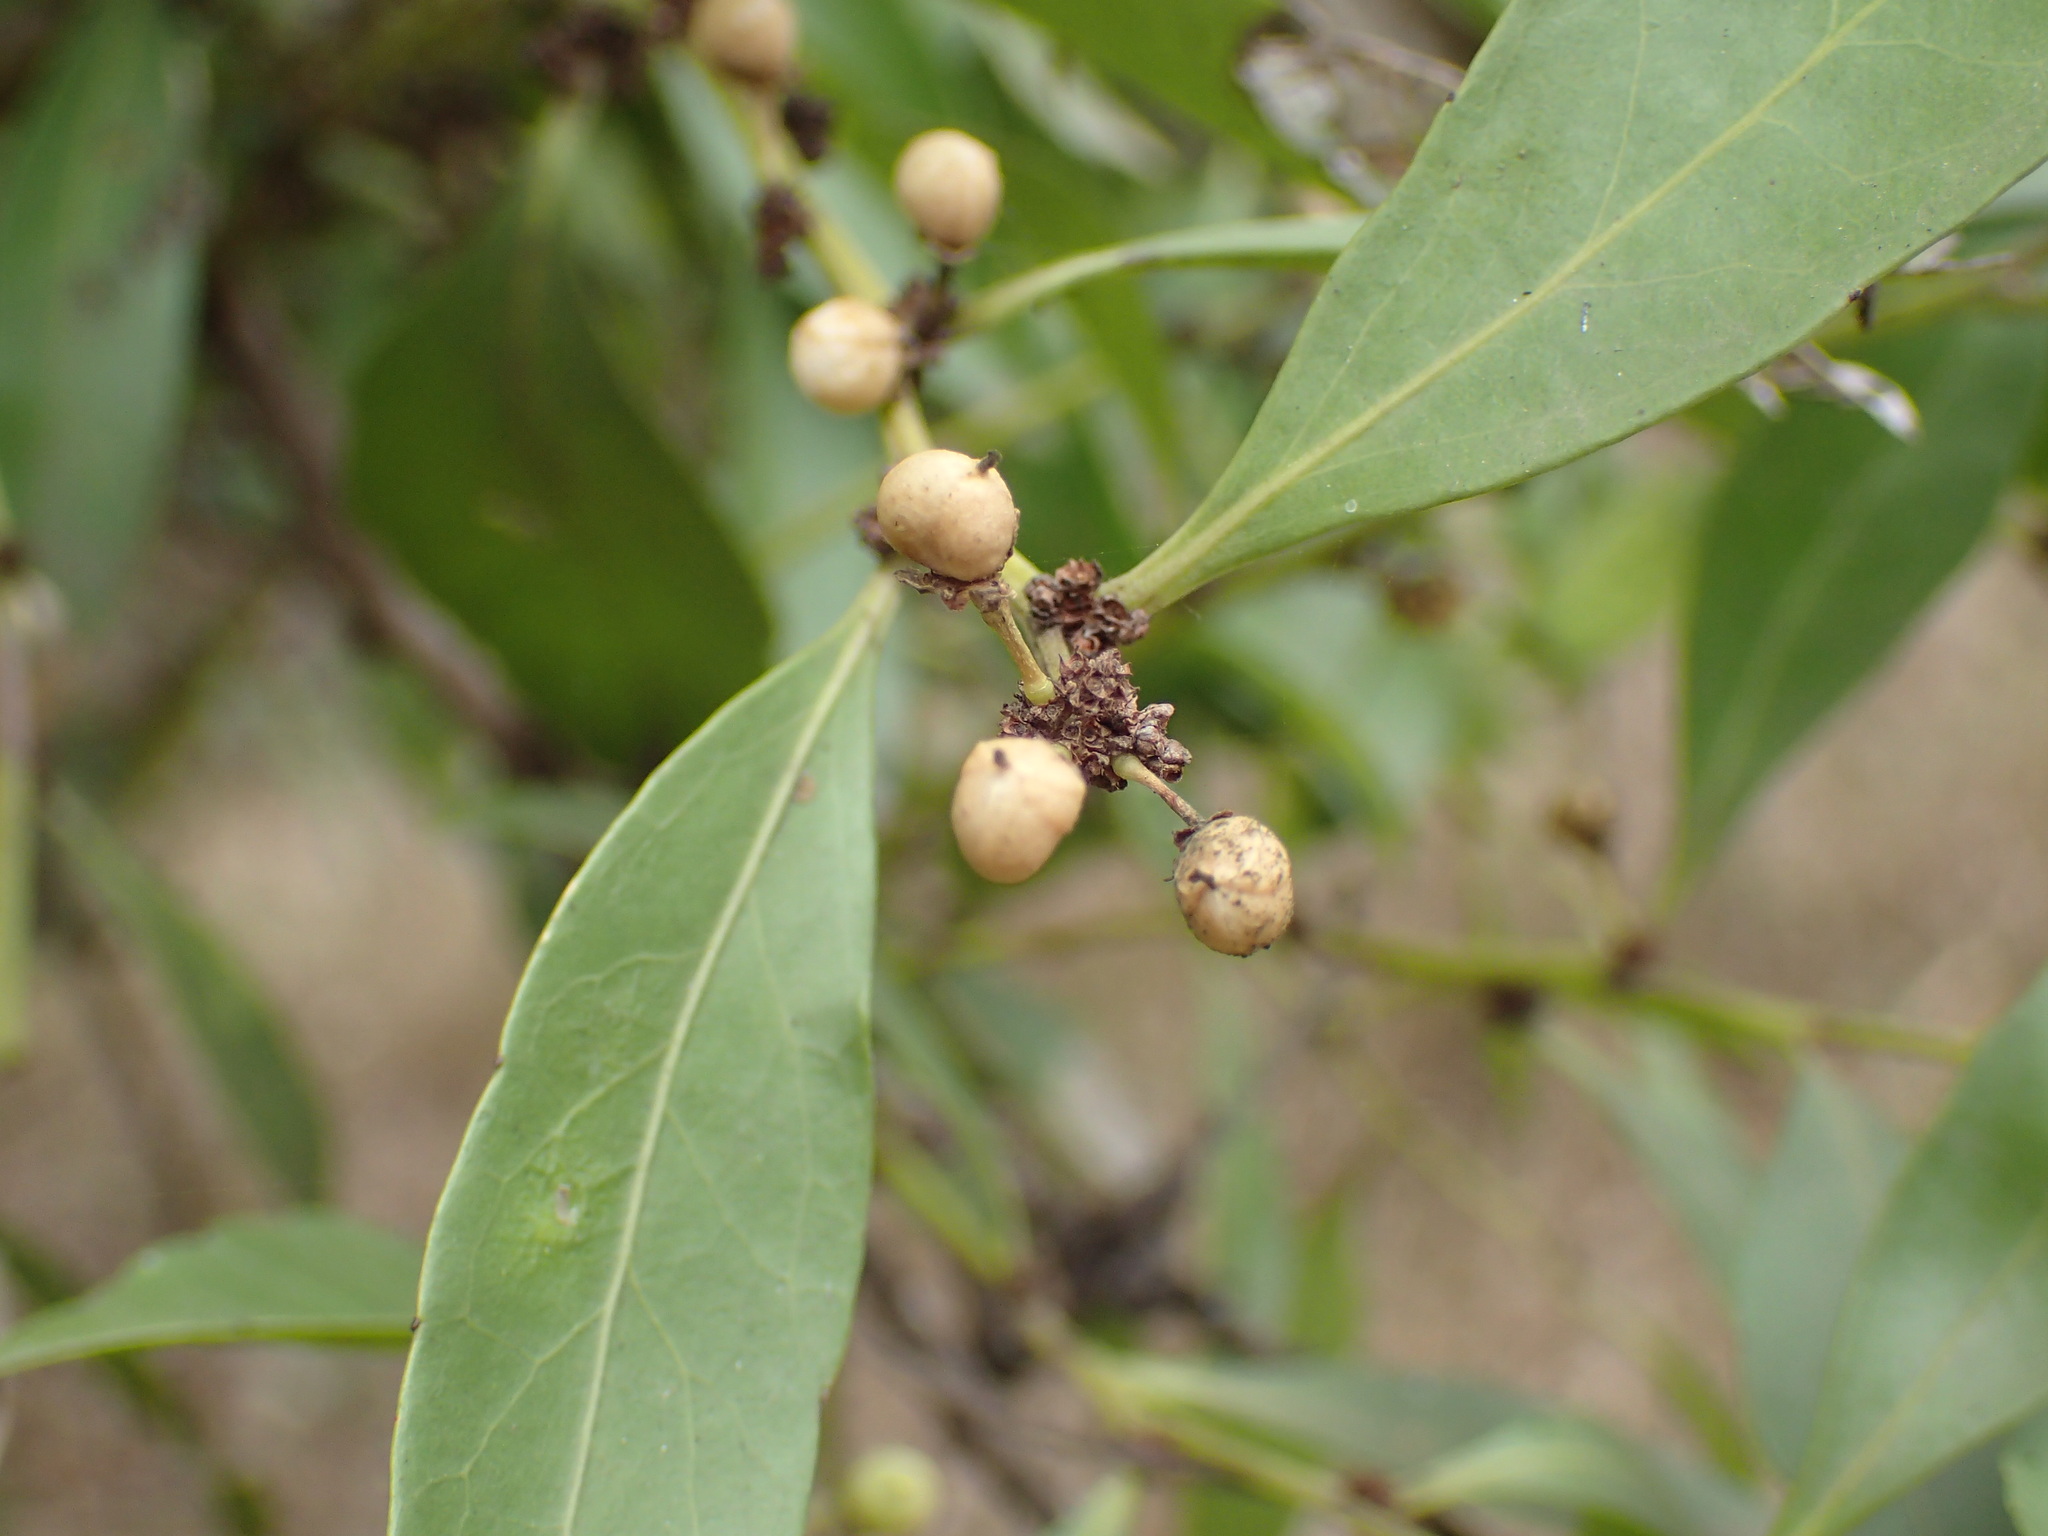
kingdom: Plantae
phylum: Tracheophyta
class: Magnoliopsida
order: Celastrales
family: Celastraceae
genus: Gymnosporia
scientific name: Gymnosporia undata
